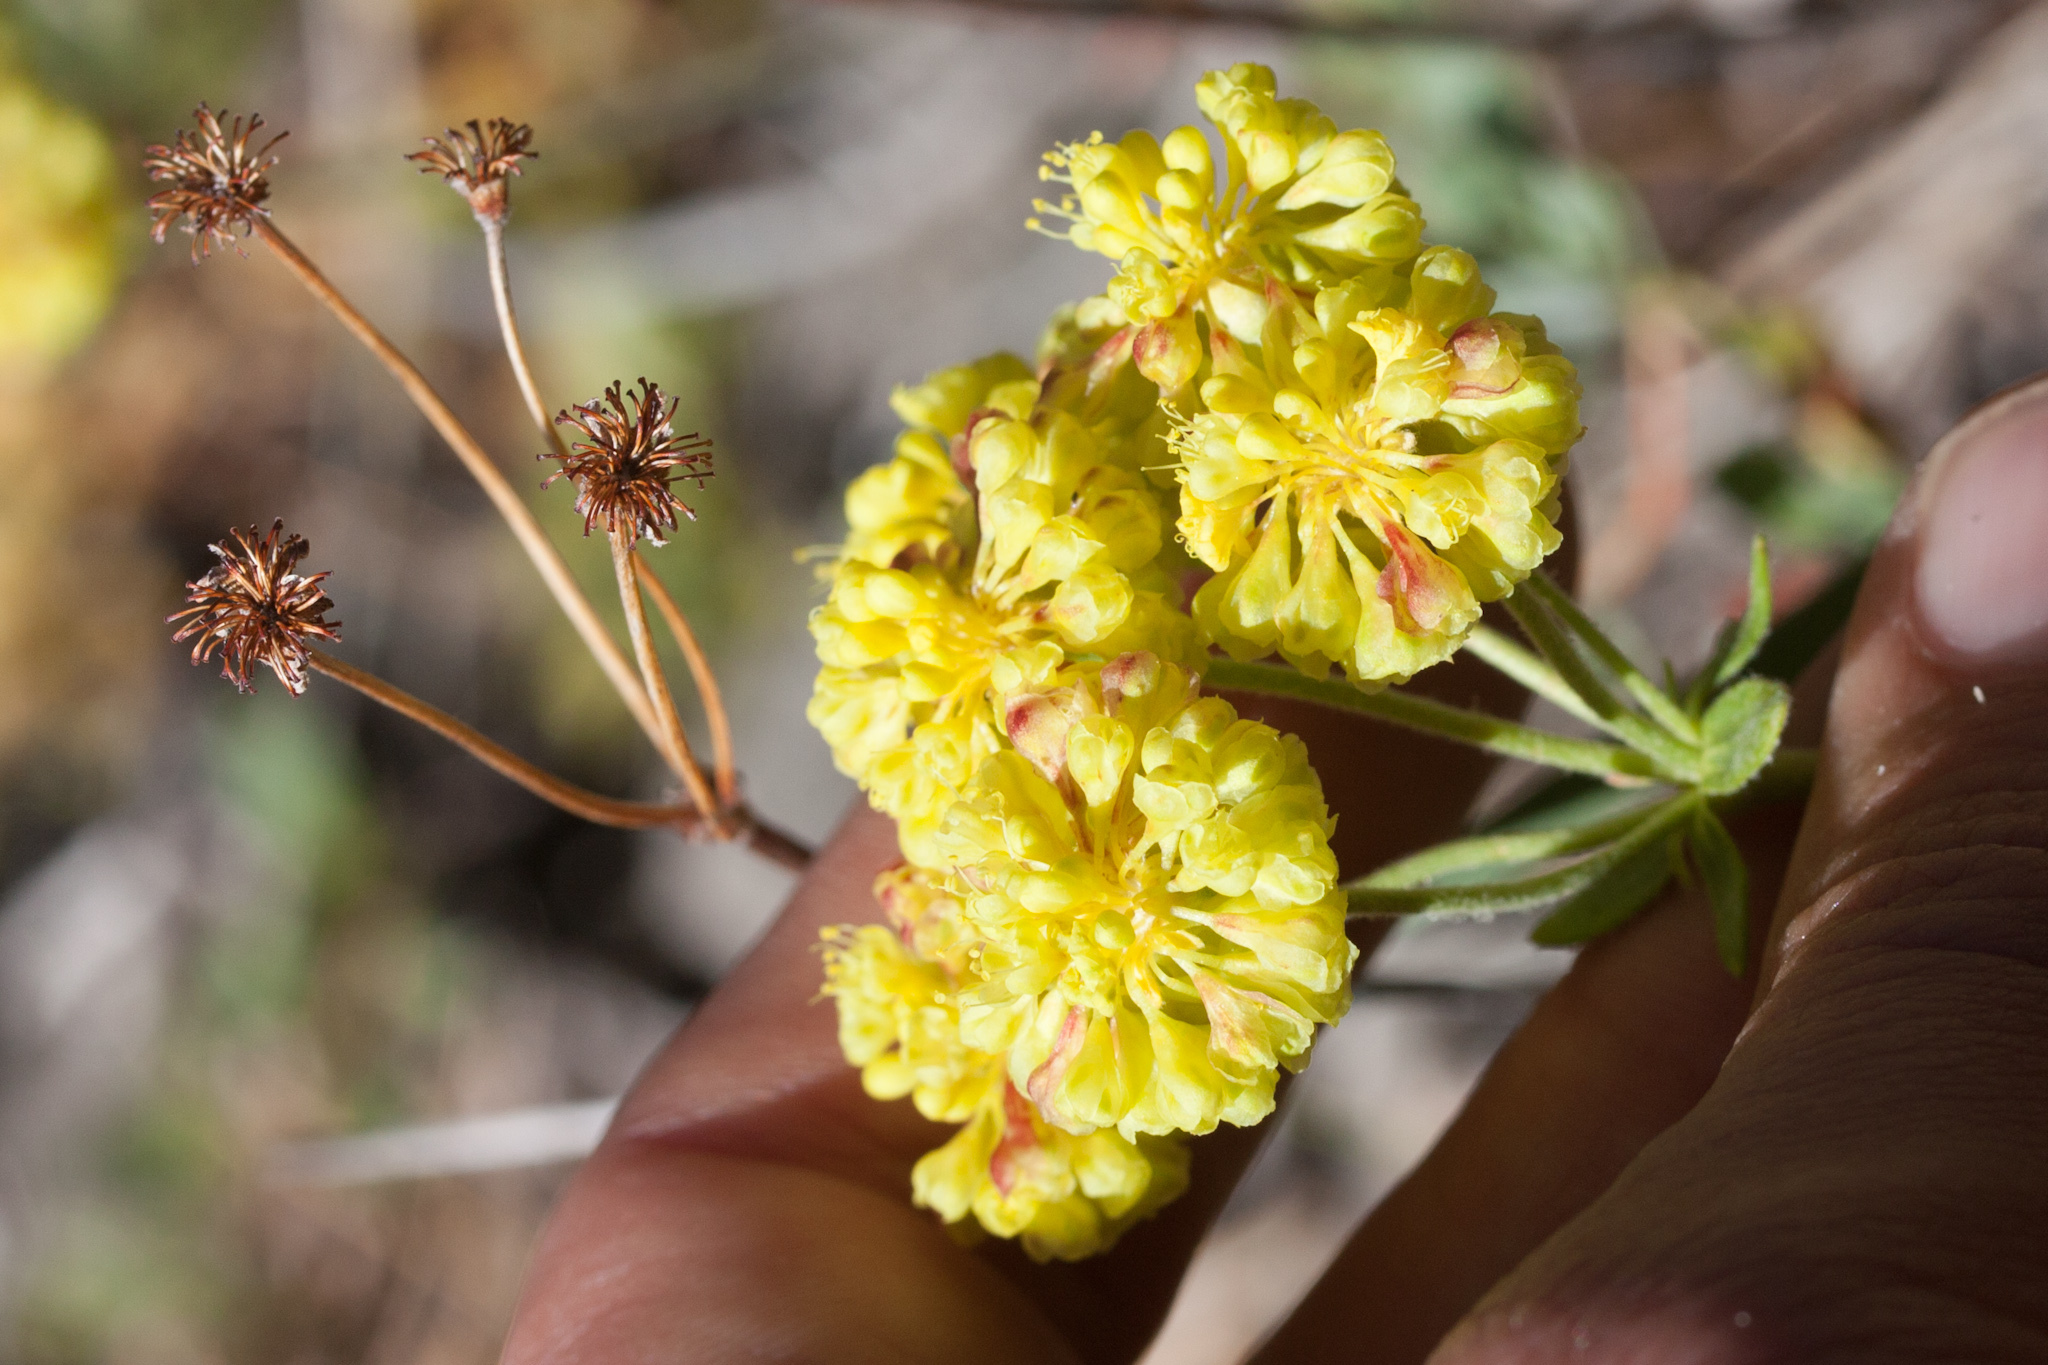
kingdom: Plantae
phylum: Tracheophyta
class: Magnoliopsida
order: Caryophyllales
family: Polygonaceae
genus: Eriogonum
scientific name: Eriogonum umbellatum
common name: Sulfur-buckwheat
